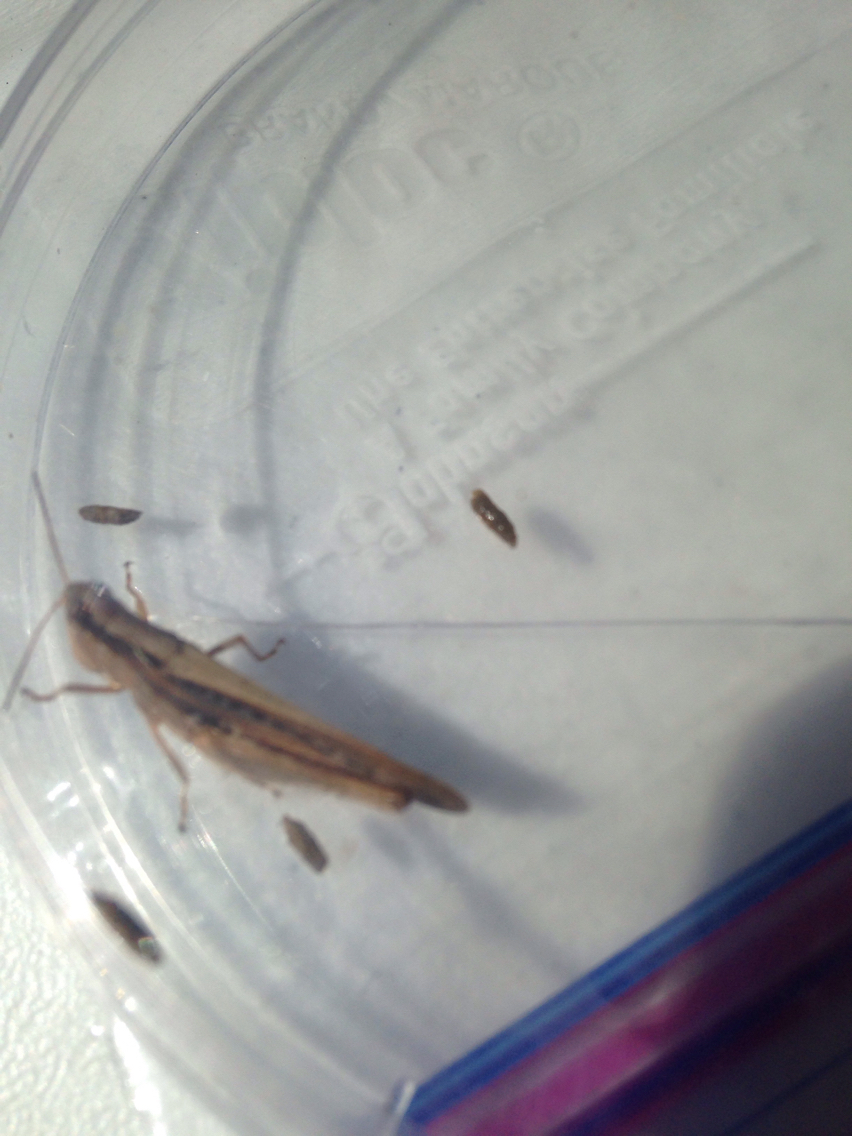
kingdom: Animalia
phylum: Arthropoda
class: Insecta
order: Orthoptera
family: Acrididae
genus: Orphulella
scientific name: Orphulella pelidna
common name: Spotted-wing grasshopper
